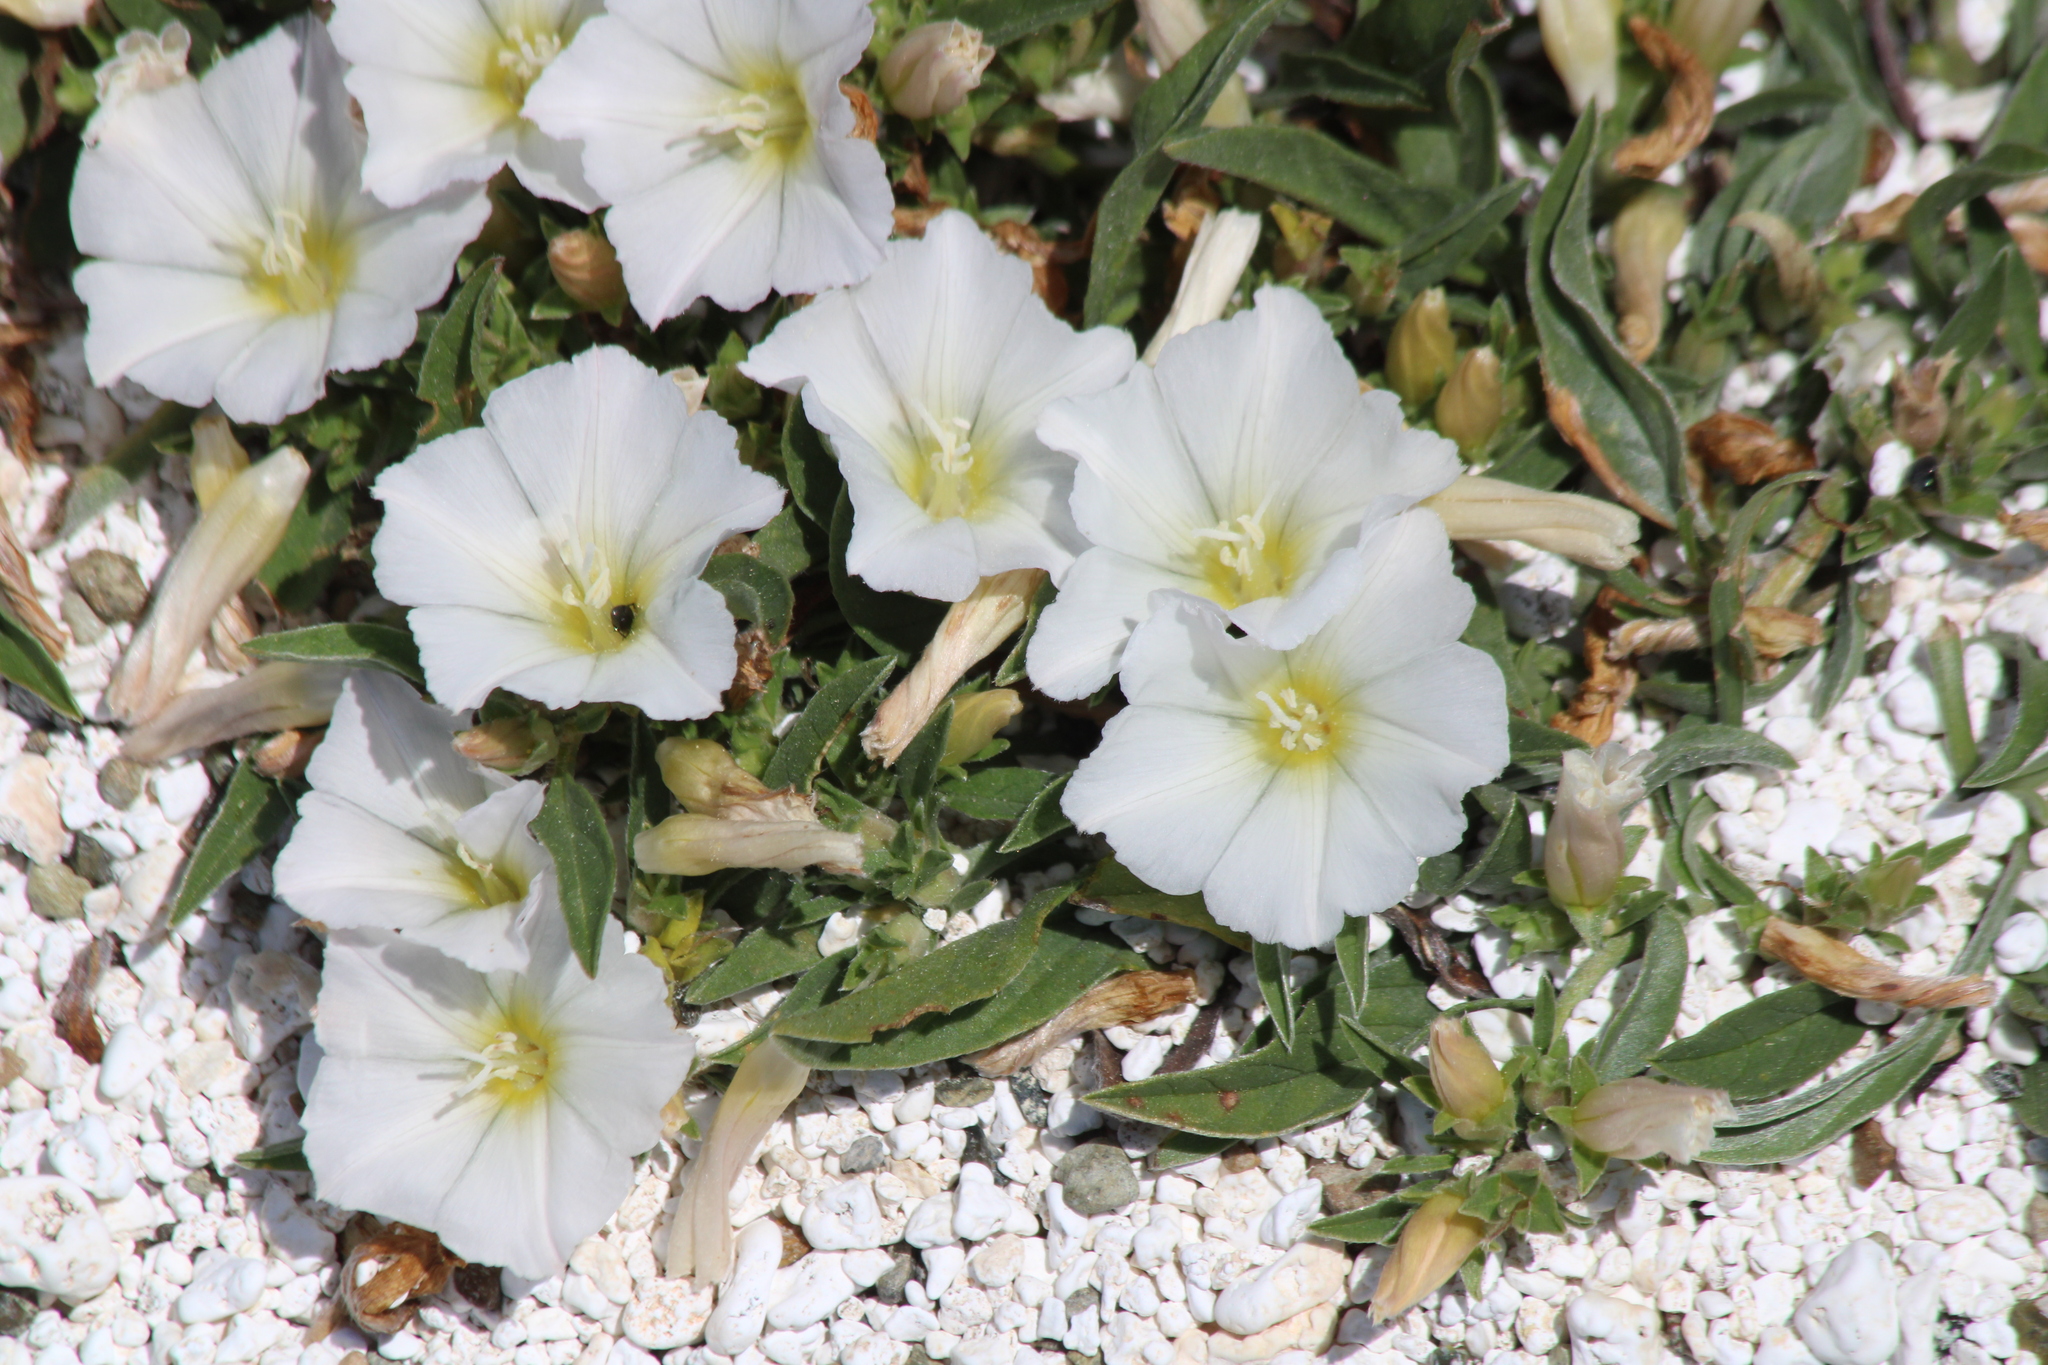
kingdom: Plantae
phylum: Tracheophyta
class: Magnoliopsida
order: Solanales
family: Convolvulaceae
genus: Convolvulus
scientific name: Convolvulus lineatus
